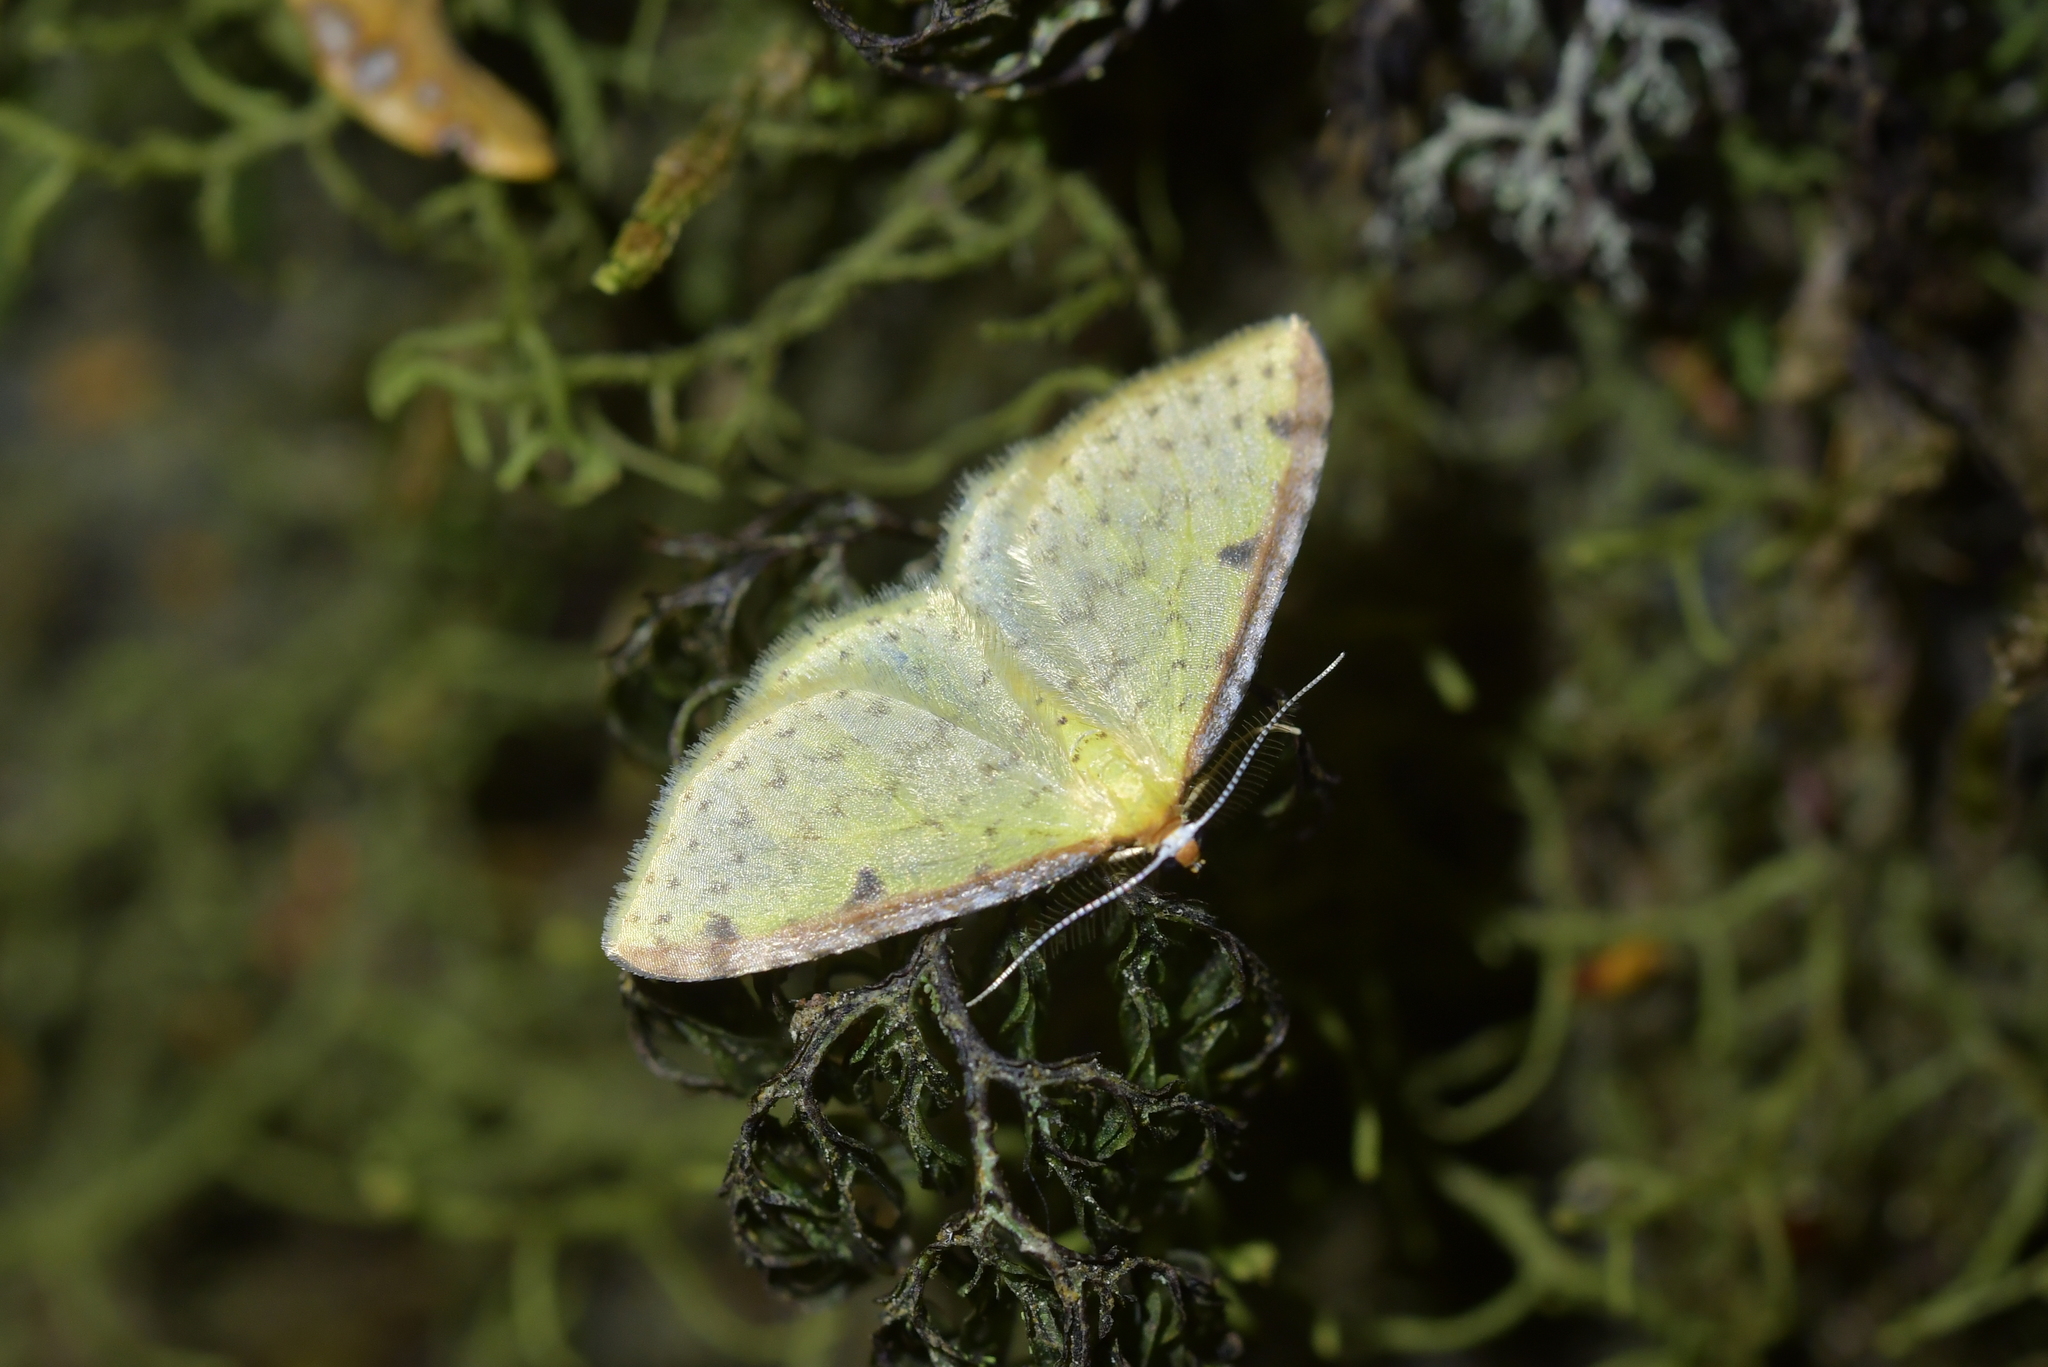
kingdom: Animalia
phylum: Arthropoda
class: Insecta
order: Lepidoptera
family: Geometridae
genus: Epiphryne
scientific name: Epiphryne undosata
